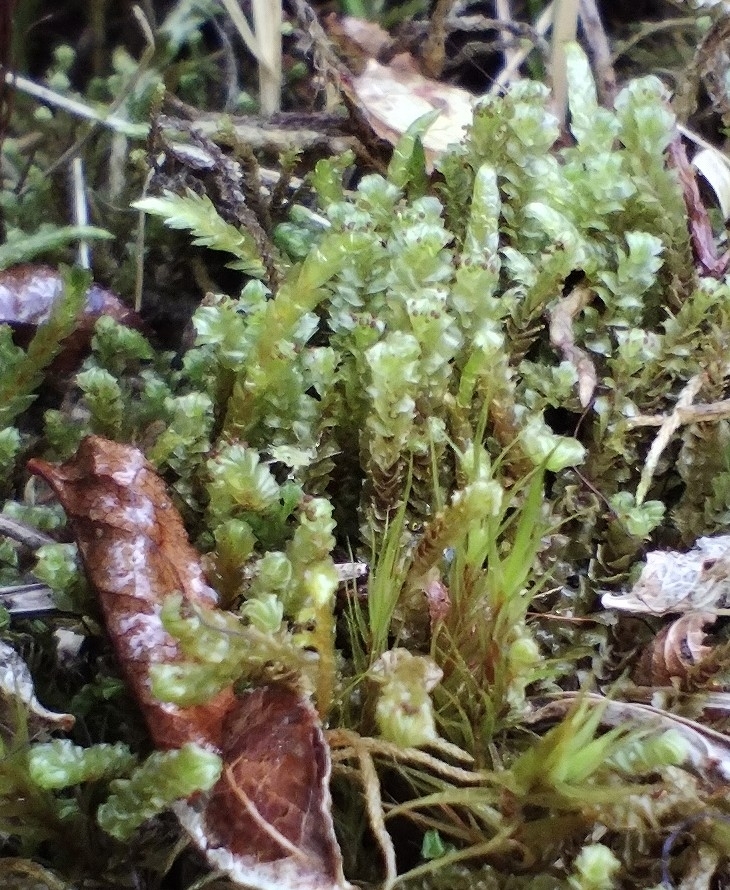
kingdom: Plantae
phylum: Marchantiophyta
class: Jungermanniopsida
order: Jungermanniales
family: Anastrophyllaceae
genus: Anastrepta
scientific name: Anastrepta orcadensis
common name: Orkney notchwort
